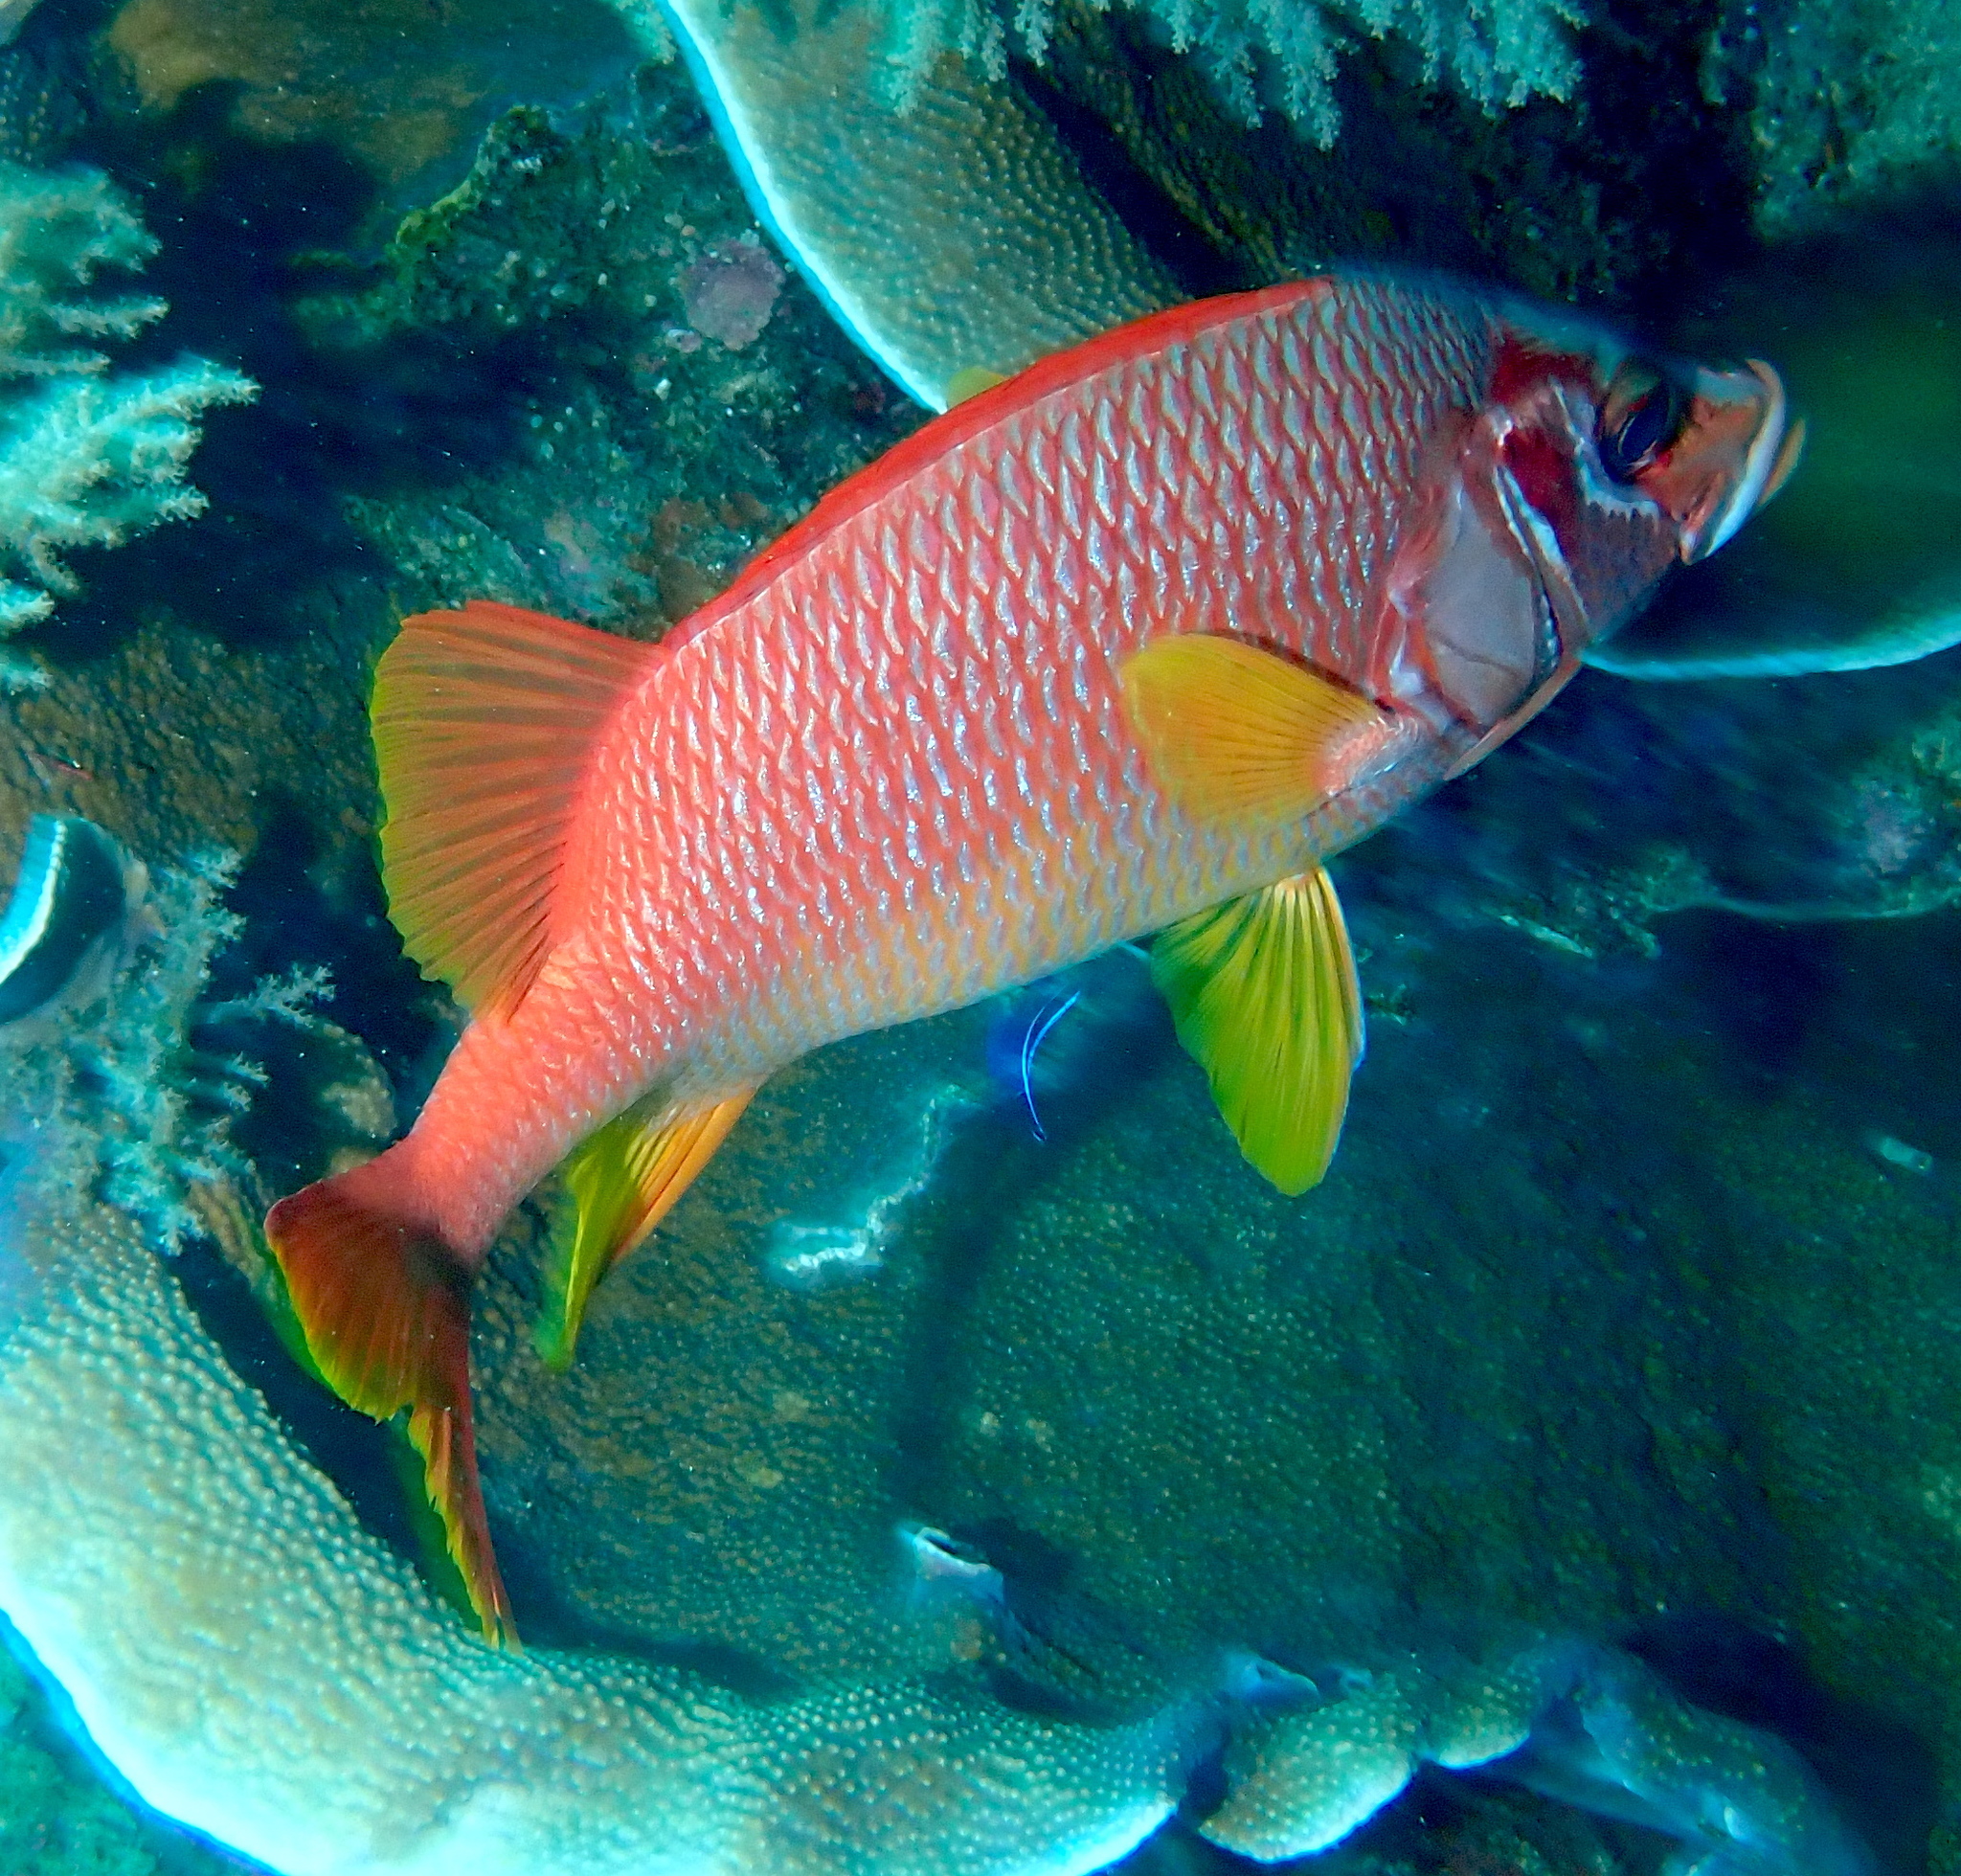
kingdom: Animalia
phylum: Chordata
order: Beryciformes
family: Holocentridae
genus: Sargocentron
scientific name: Sargocentron spiniferum
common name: Giant squirrelfish
